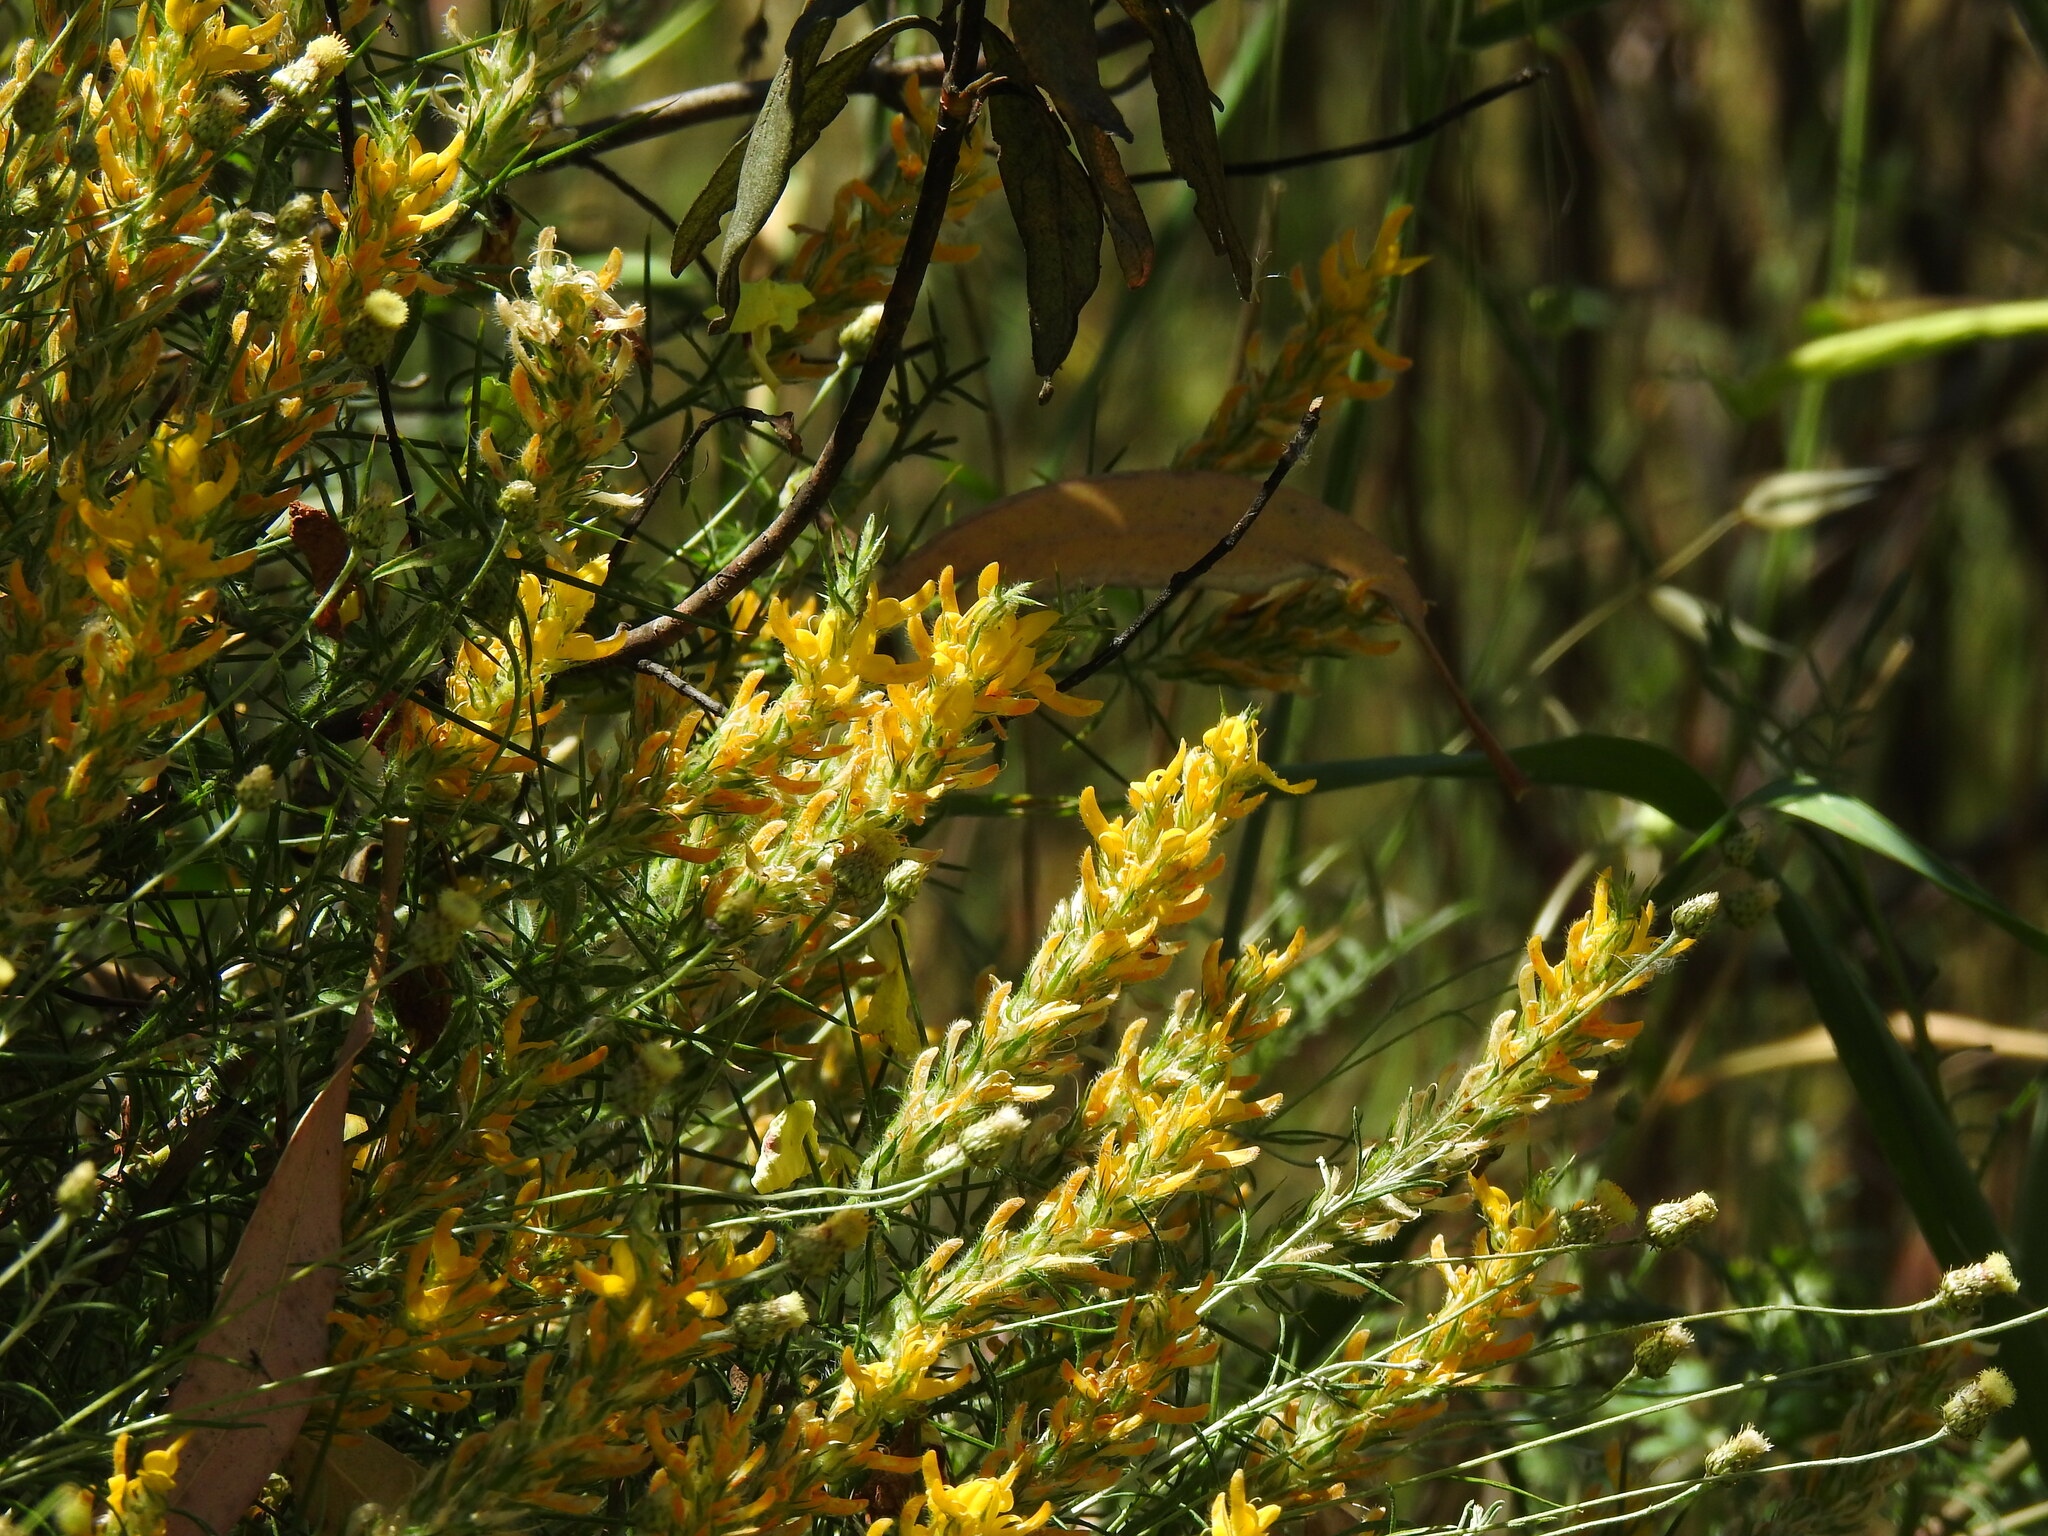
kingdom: Plantae
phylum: Tracheophyta
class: Magnoliopsida
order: Fabales
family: Fabaceae
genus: Genista
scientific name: Genista hirsuta
